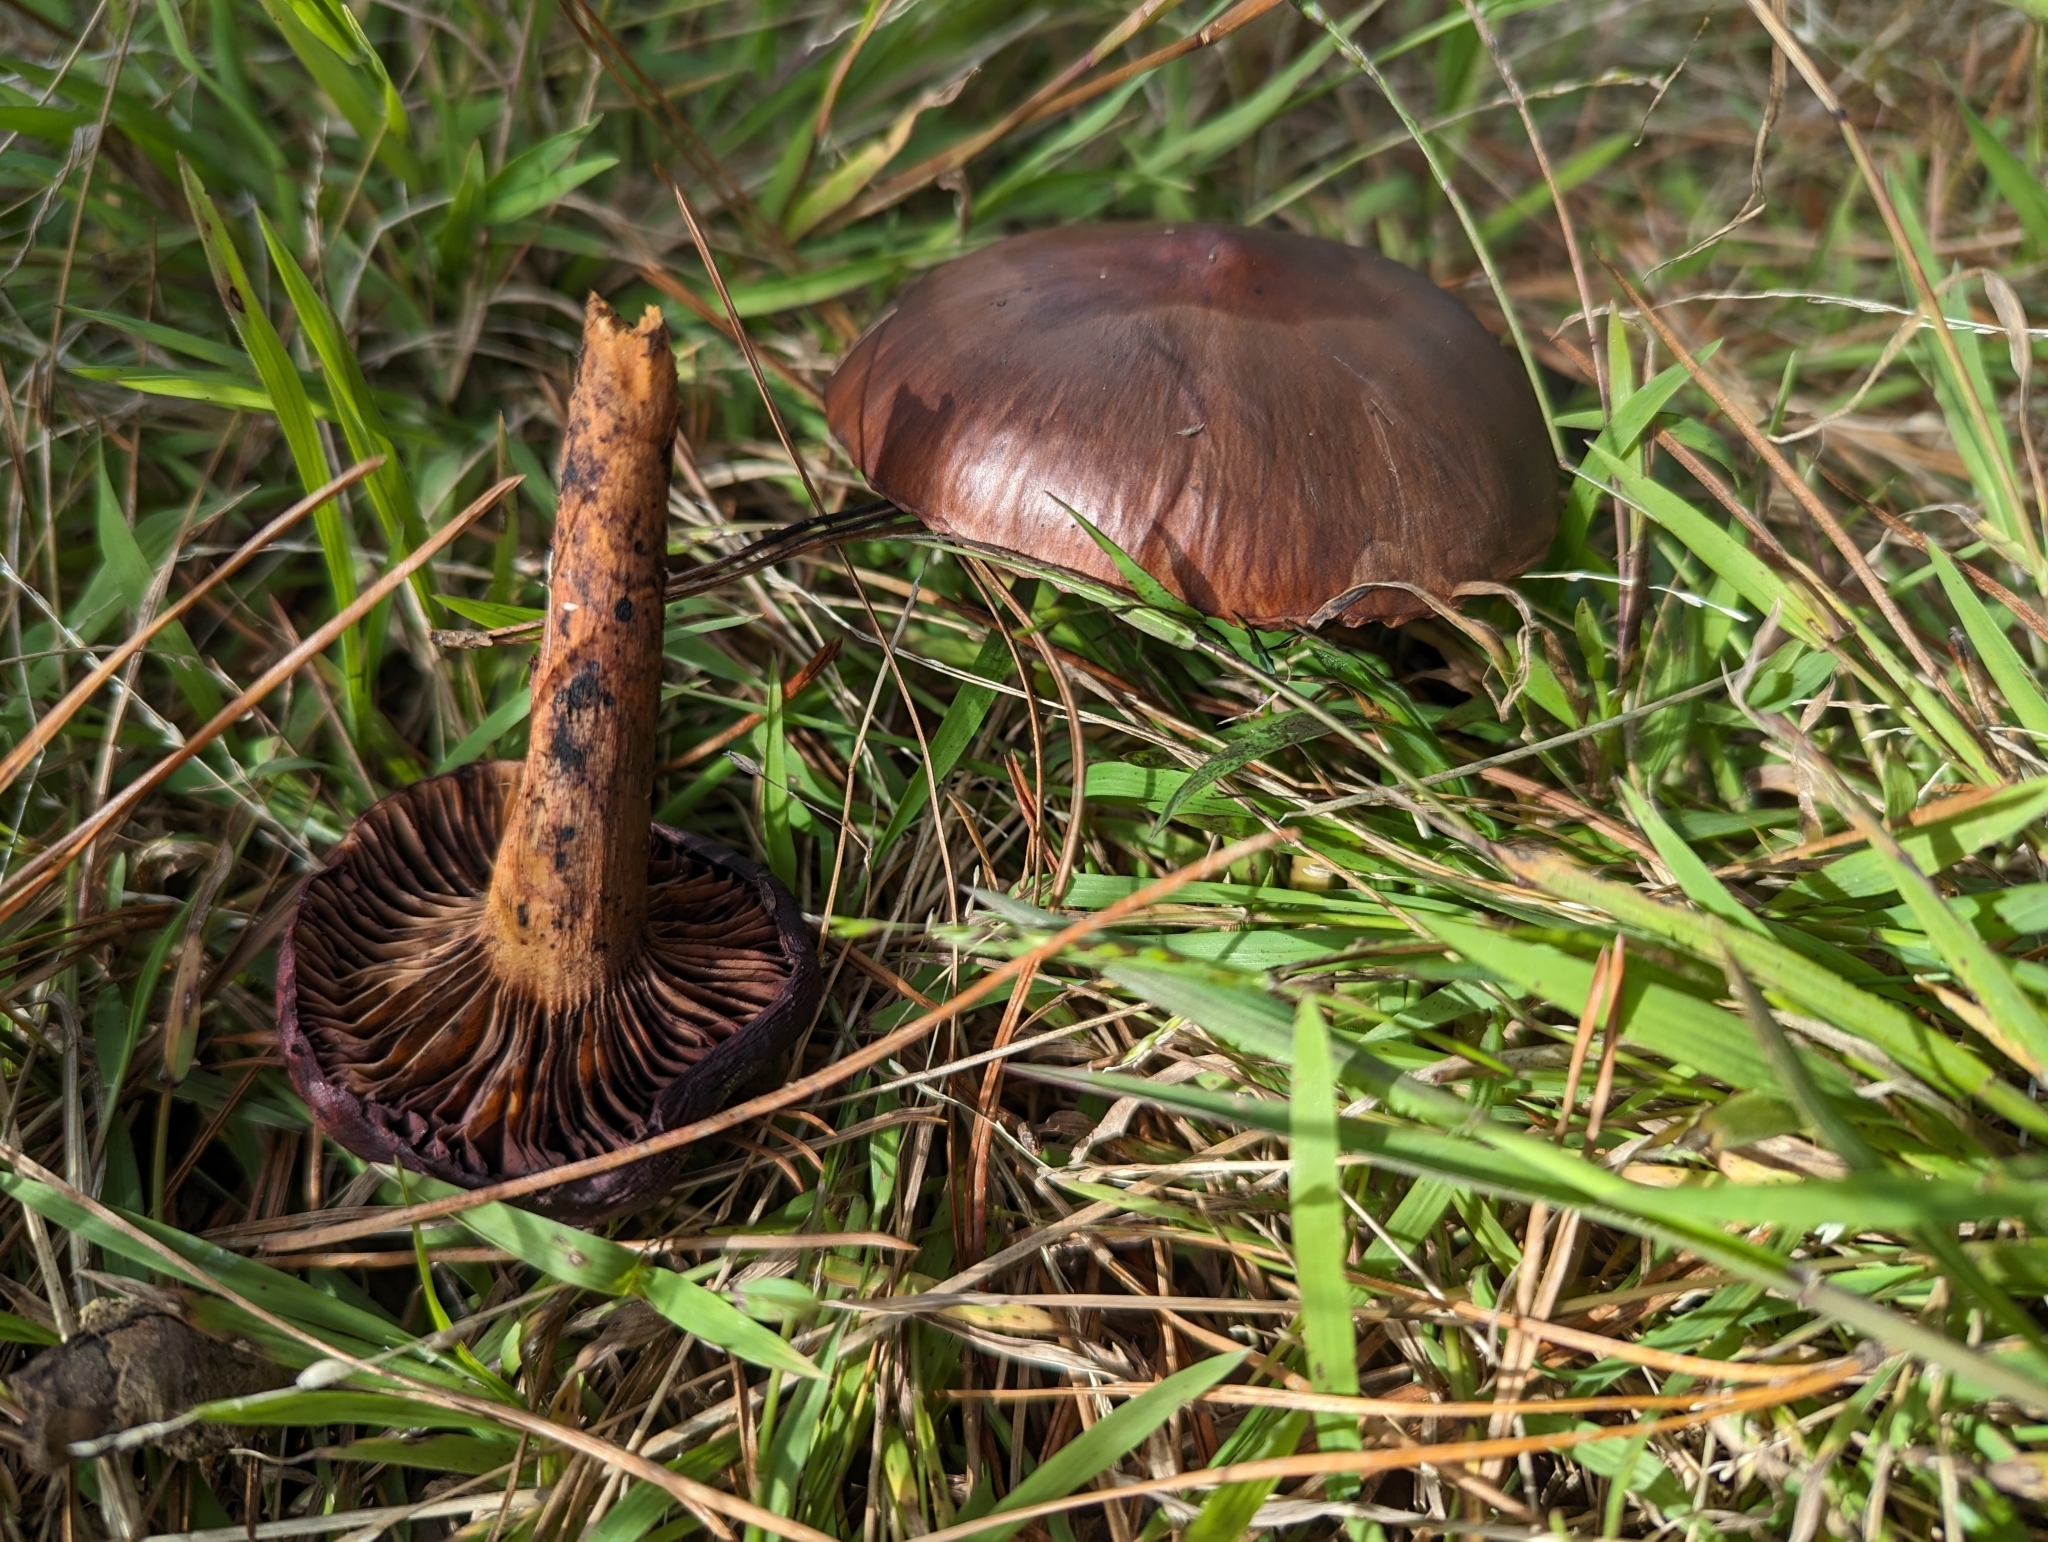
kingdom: Fungi
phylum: Basidiomycota
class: Agaricomycetes
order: Boletales
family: Gomphidiaceae
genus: Chroogomphus
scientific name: Chroogomphus vinicolor
